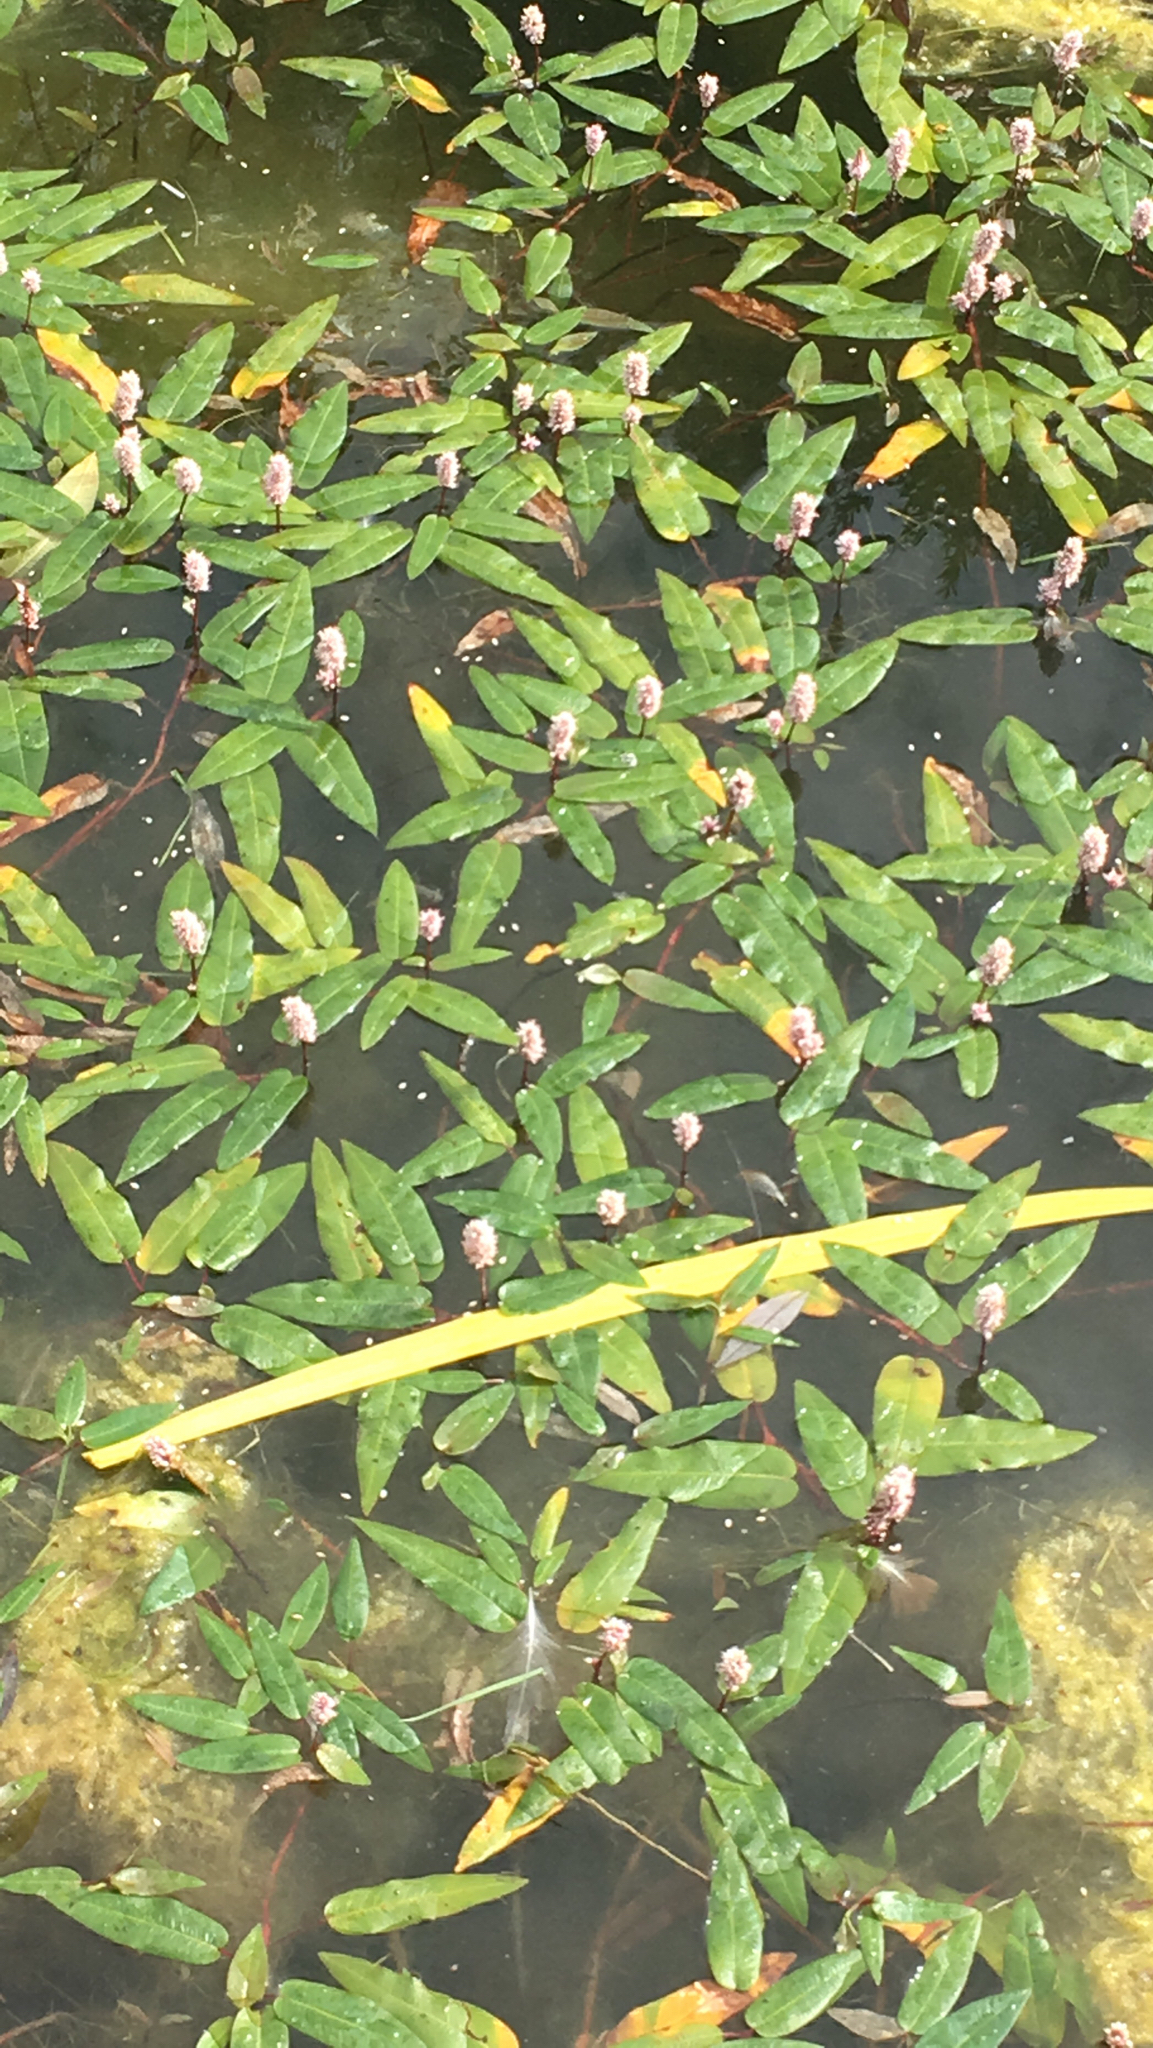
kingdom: Plantae
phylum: Tracheophyta
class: Magnoliopsida
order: Caryophyllales
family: Polygonaceae
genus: Persicaria
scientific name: Persicaria amphibia
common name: Amphibious bistort
